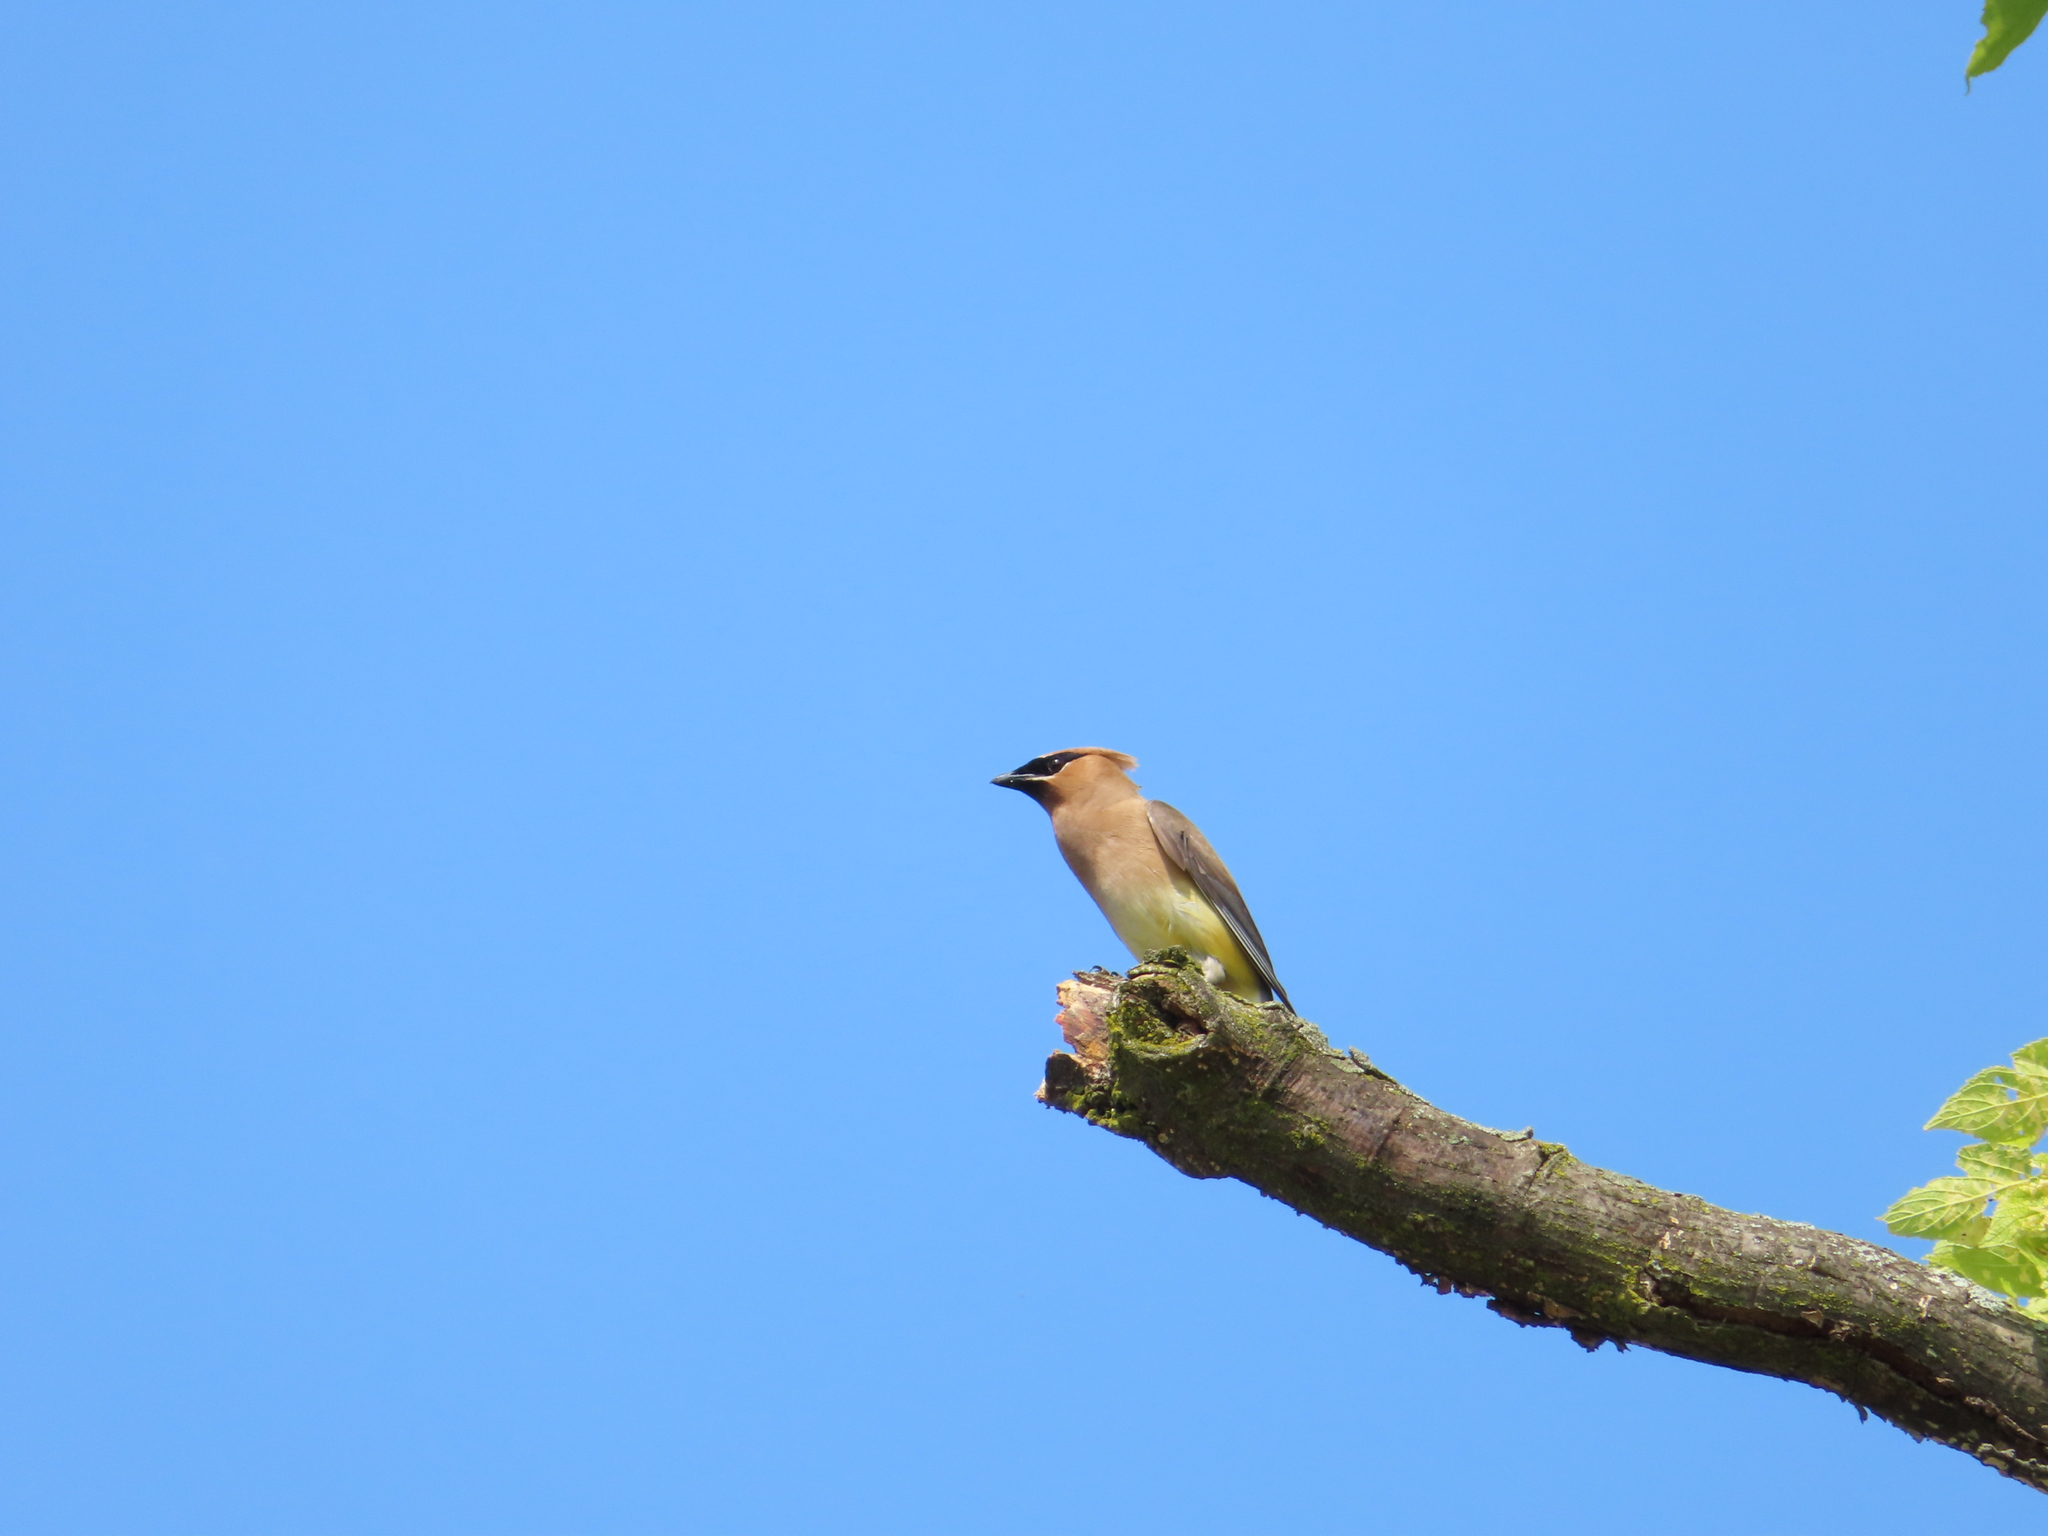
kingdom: Animalia
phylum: Chordata
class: Aves
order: Passeriformes
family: Bombycillidae
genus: Bombycilla
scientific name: Bombycilla cedrorum
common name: Cedar waxwing
